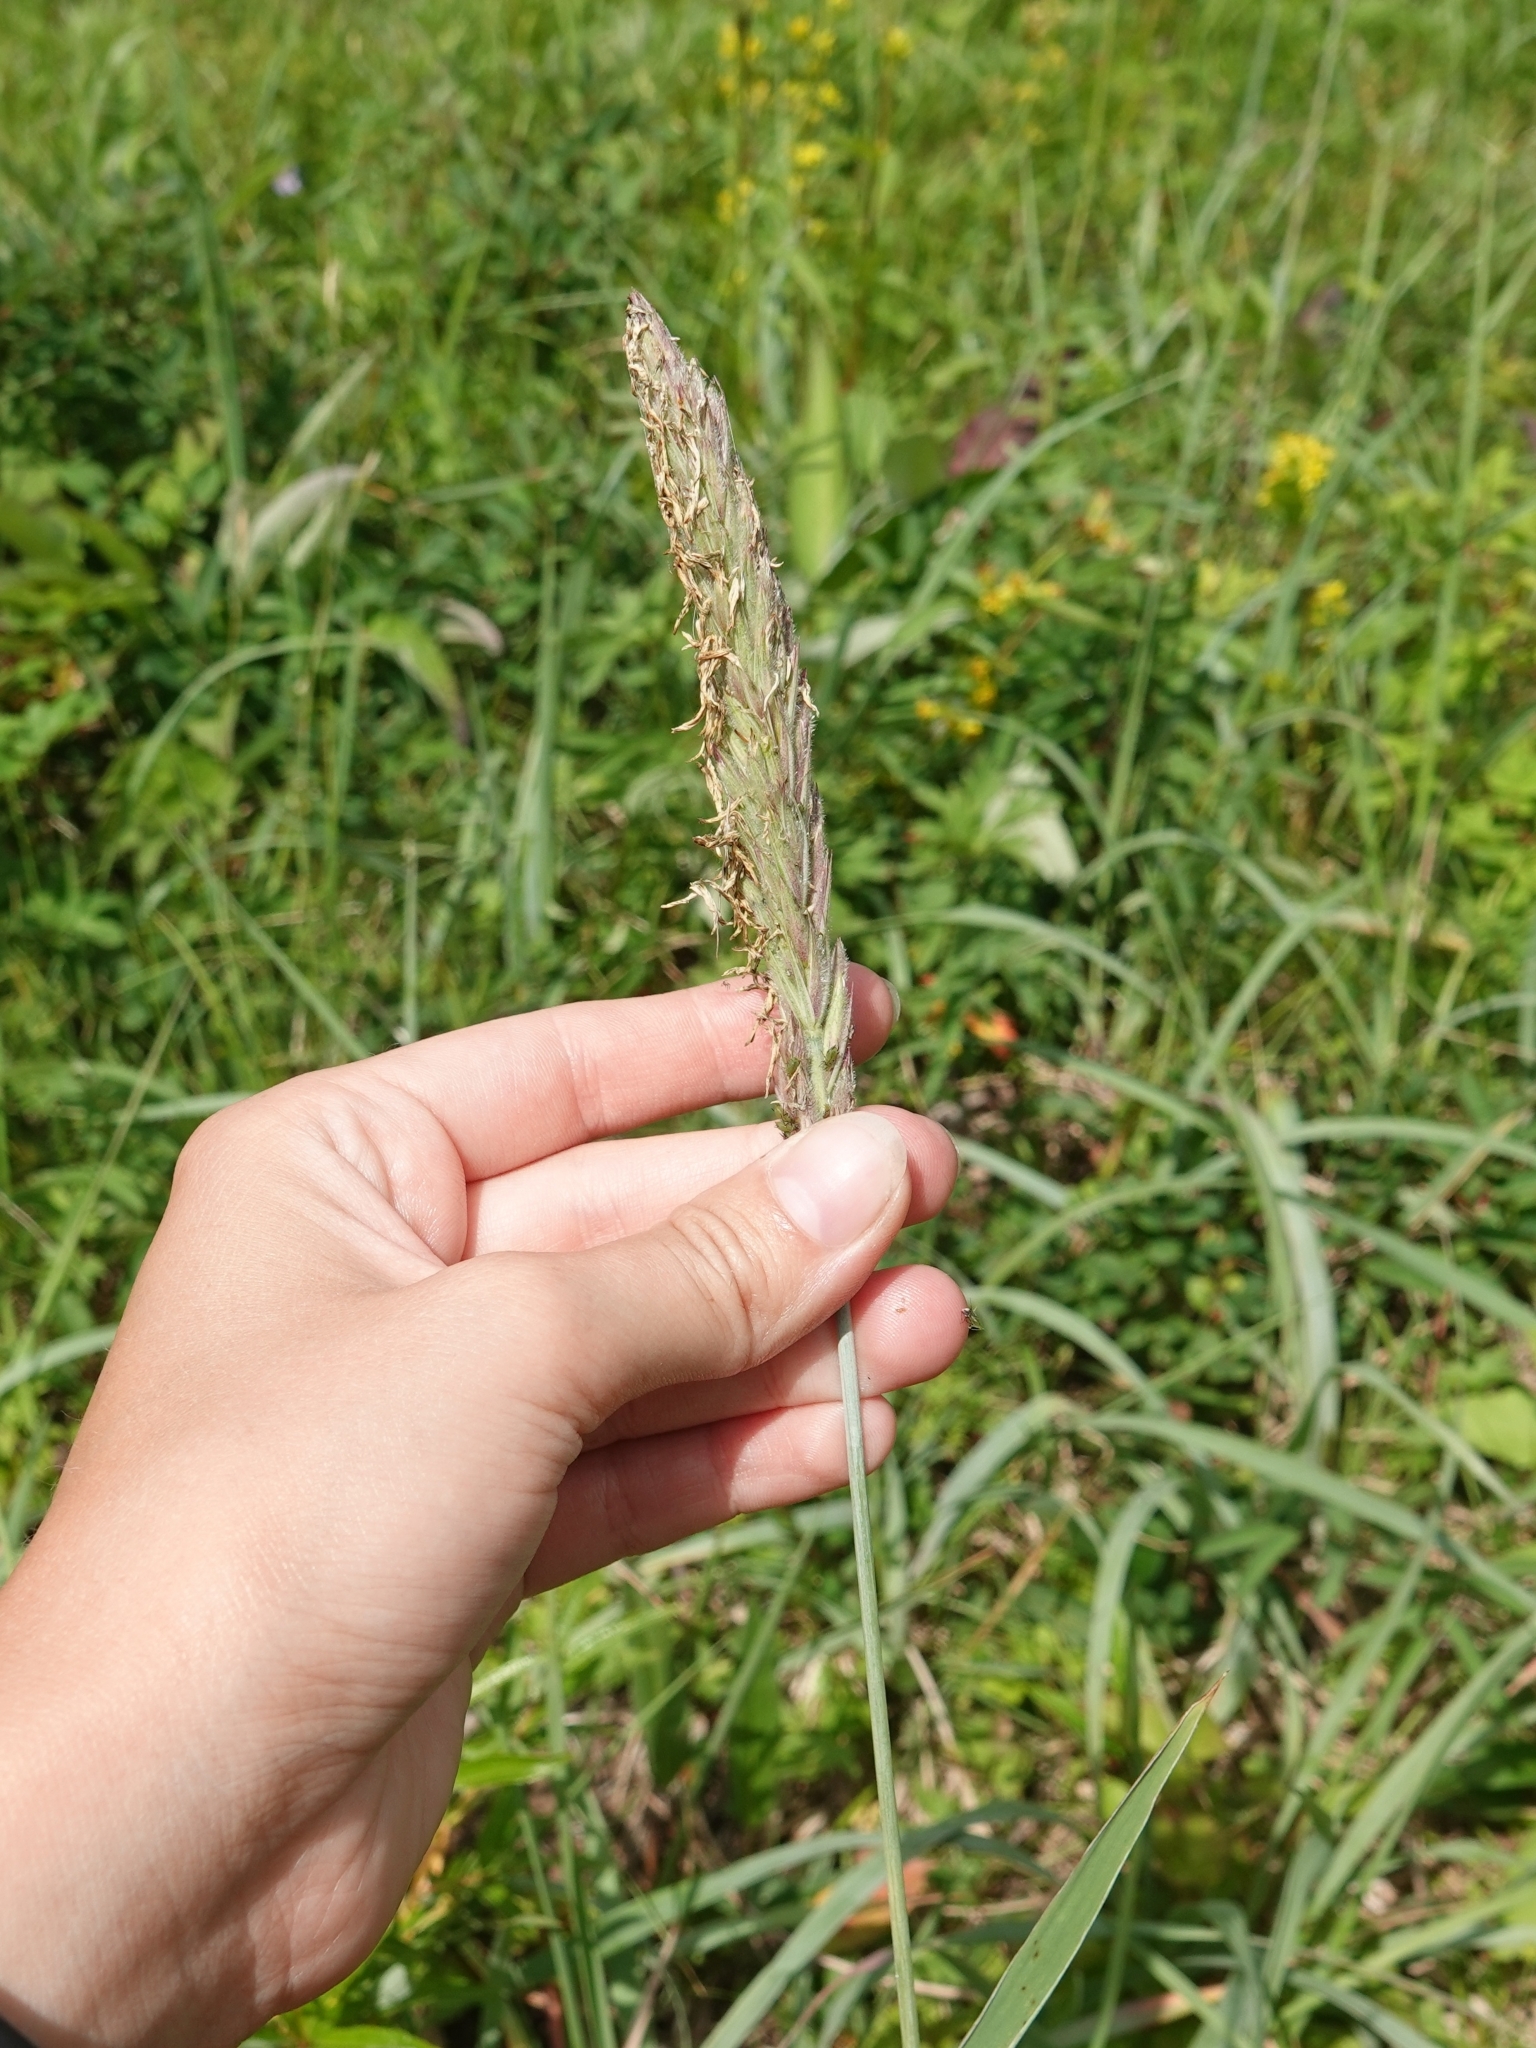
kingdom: Plantae
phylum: Tracheophyta
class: Liliopsida
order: Poales
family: Poaceae
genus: Leymus
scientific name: Leymus ajanensis
